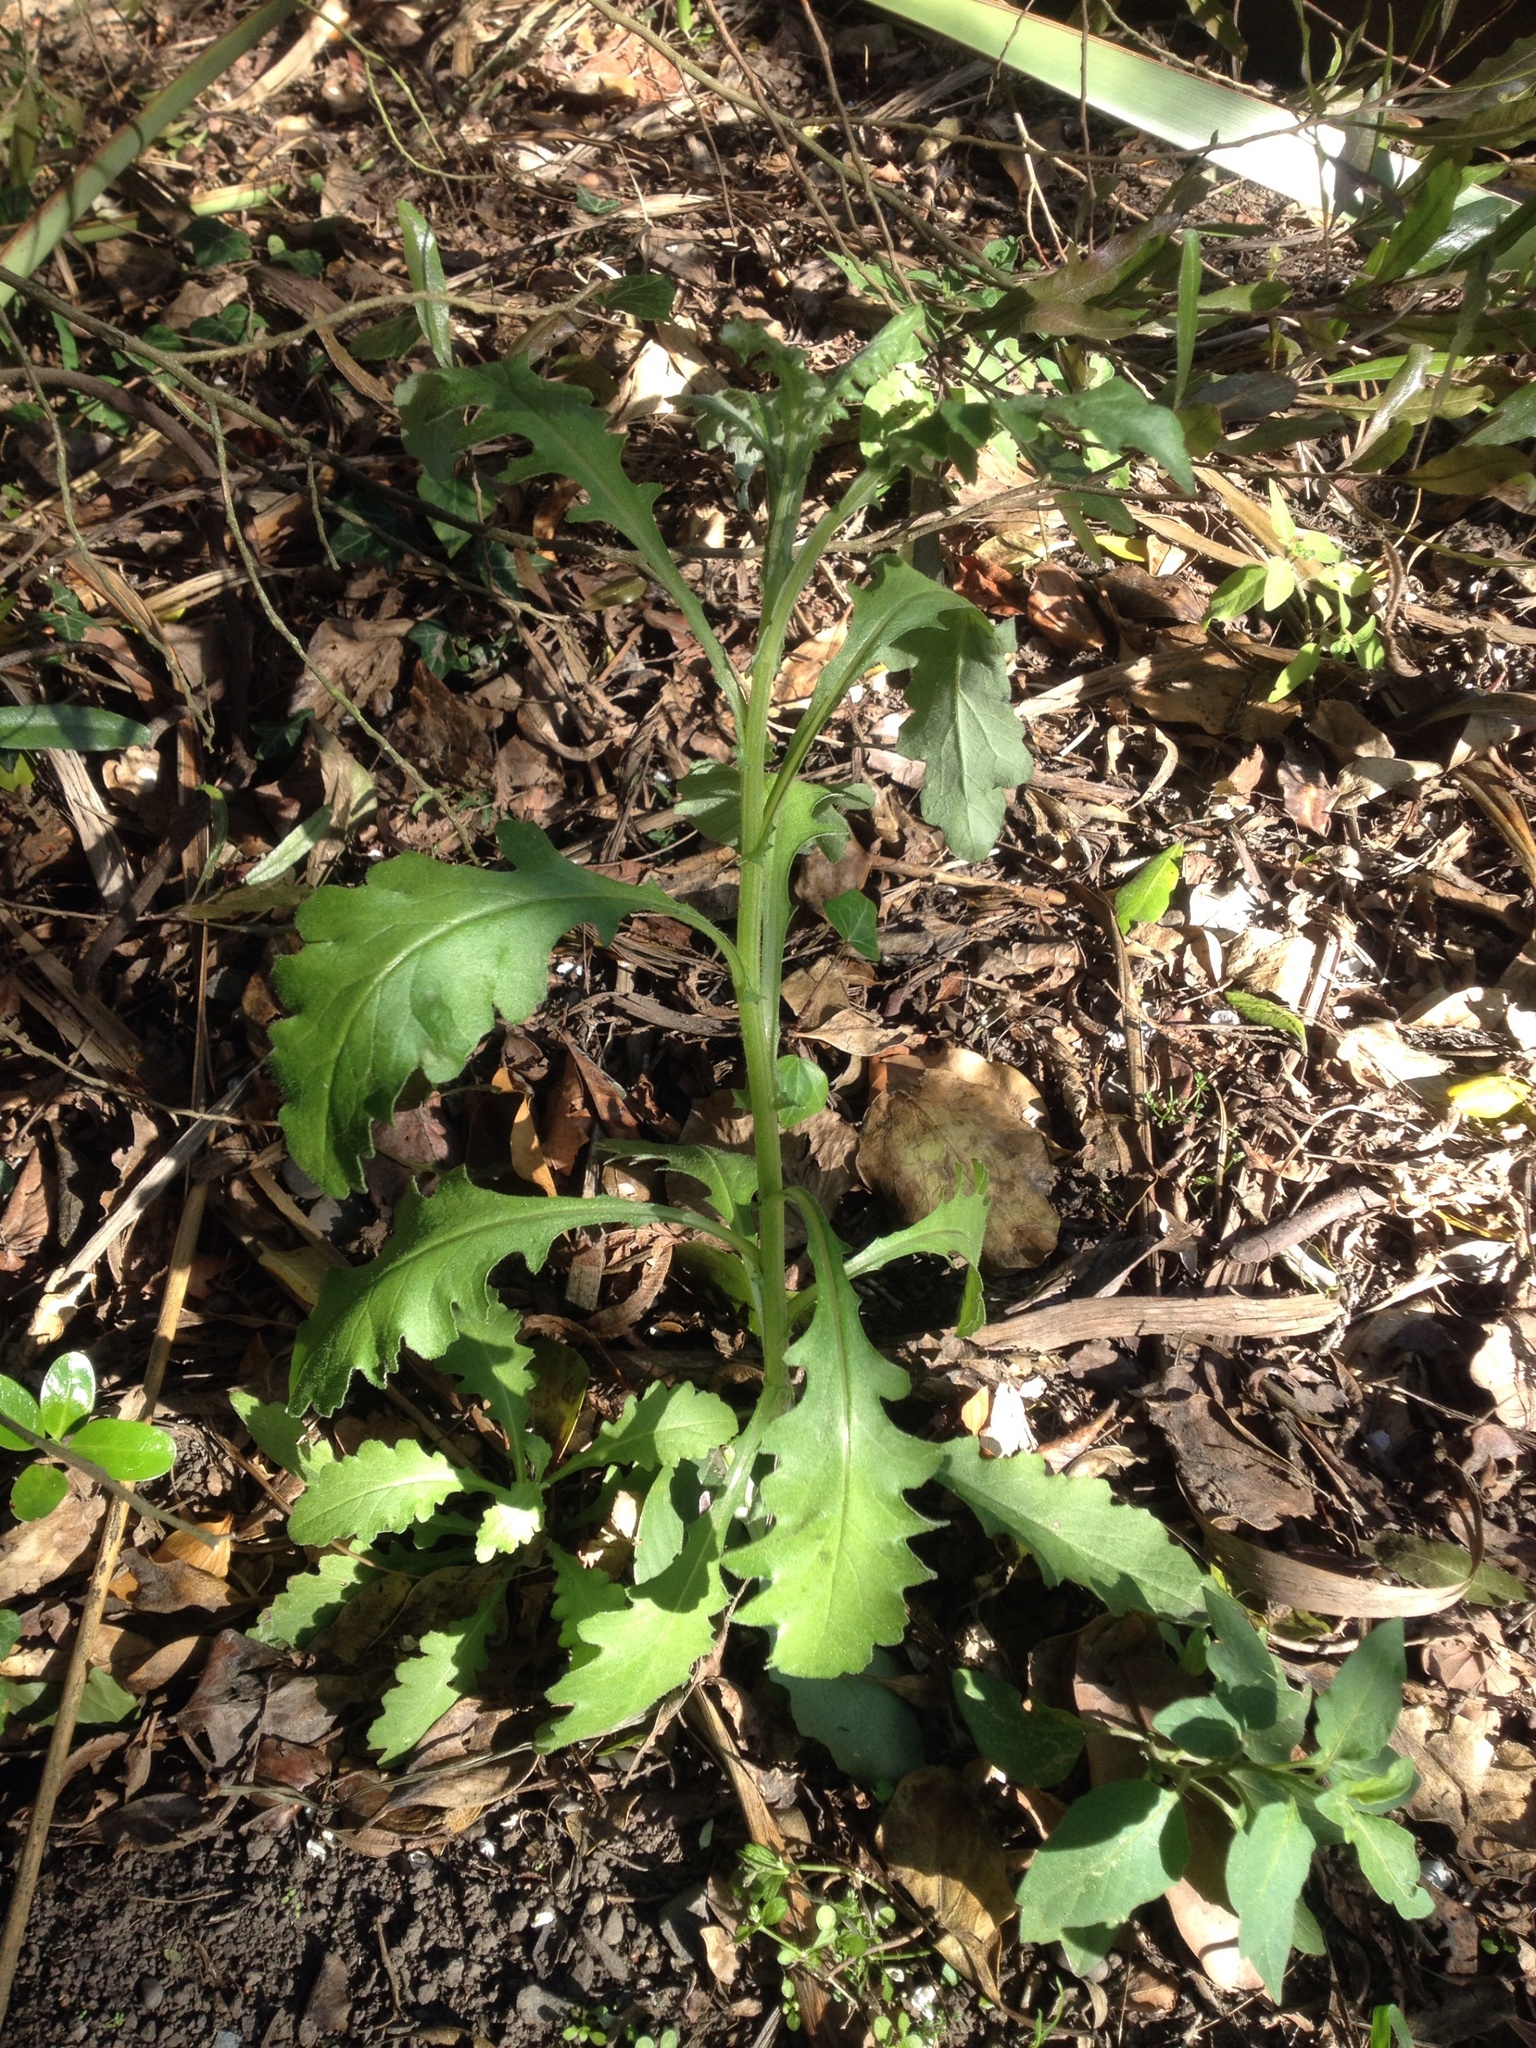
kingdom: Plantae
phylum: Tracheophyta
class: Magnoliopsida
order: Asterales
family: Asteraceae
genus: Senecio
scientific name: Senecio glomeratus
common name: Cutleaf burnweed
